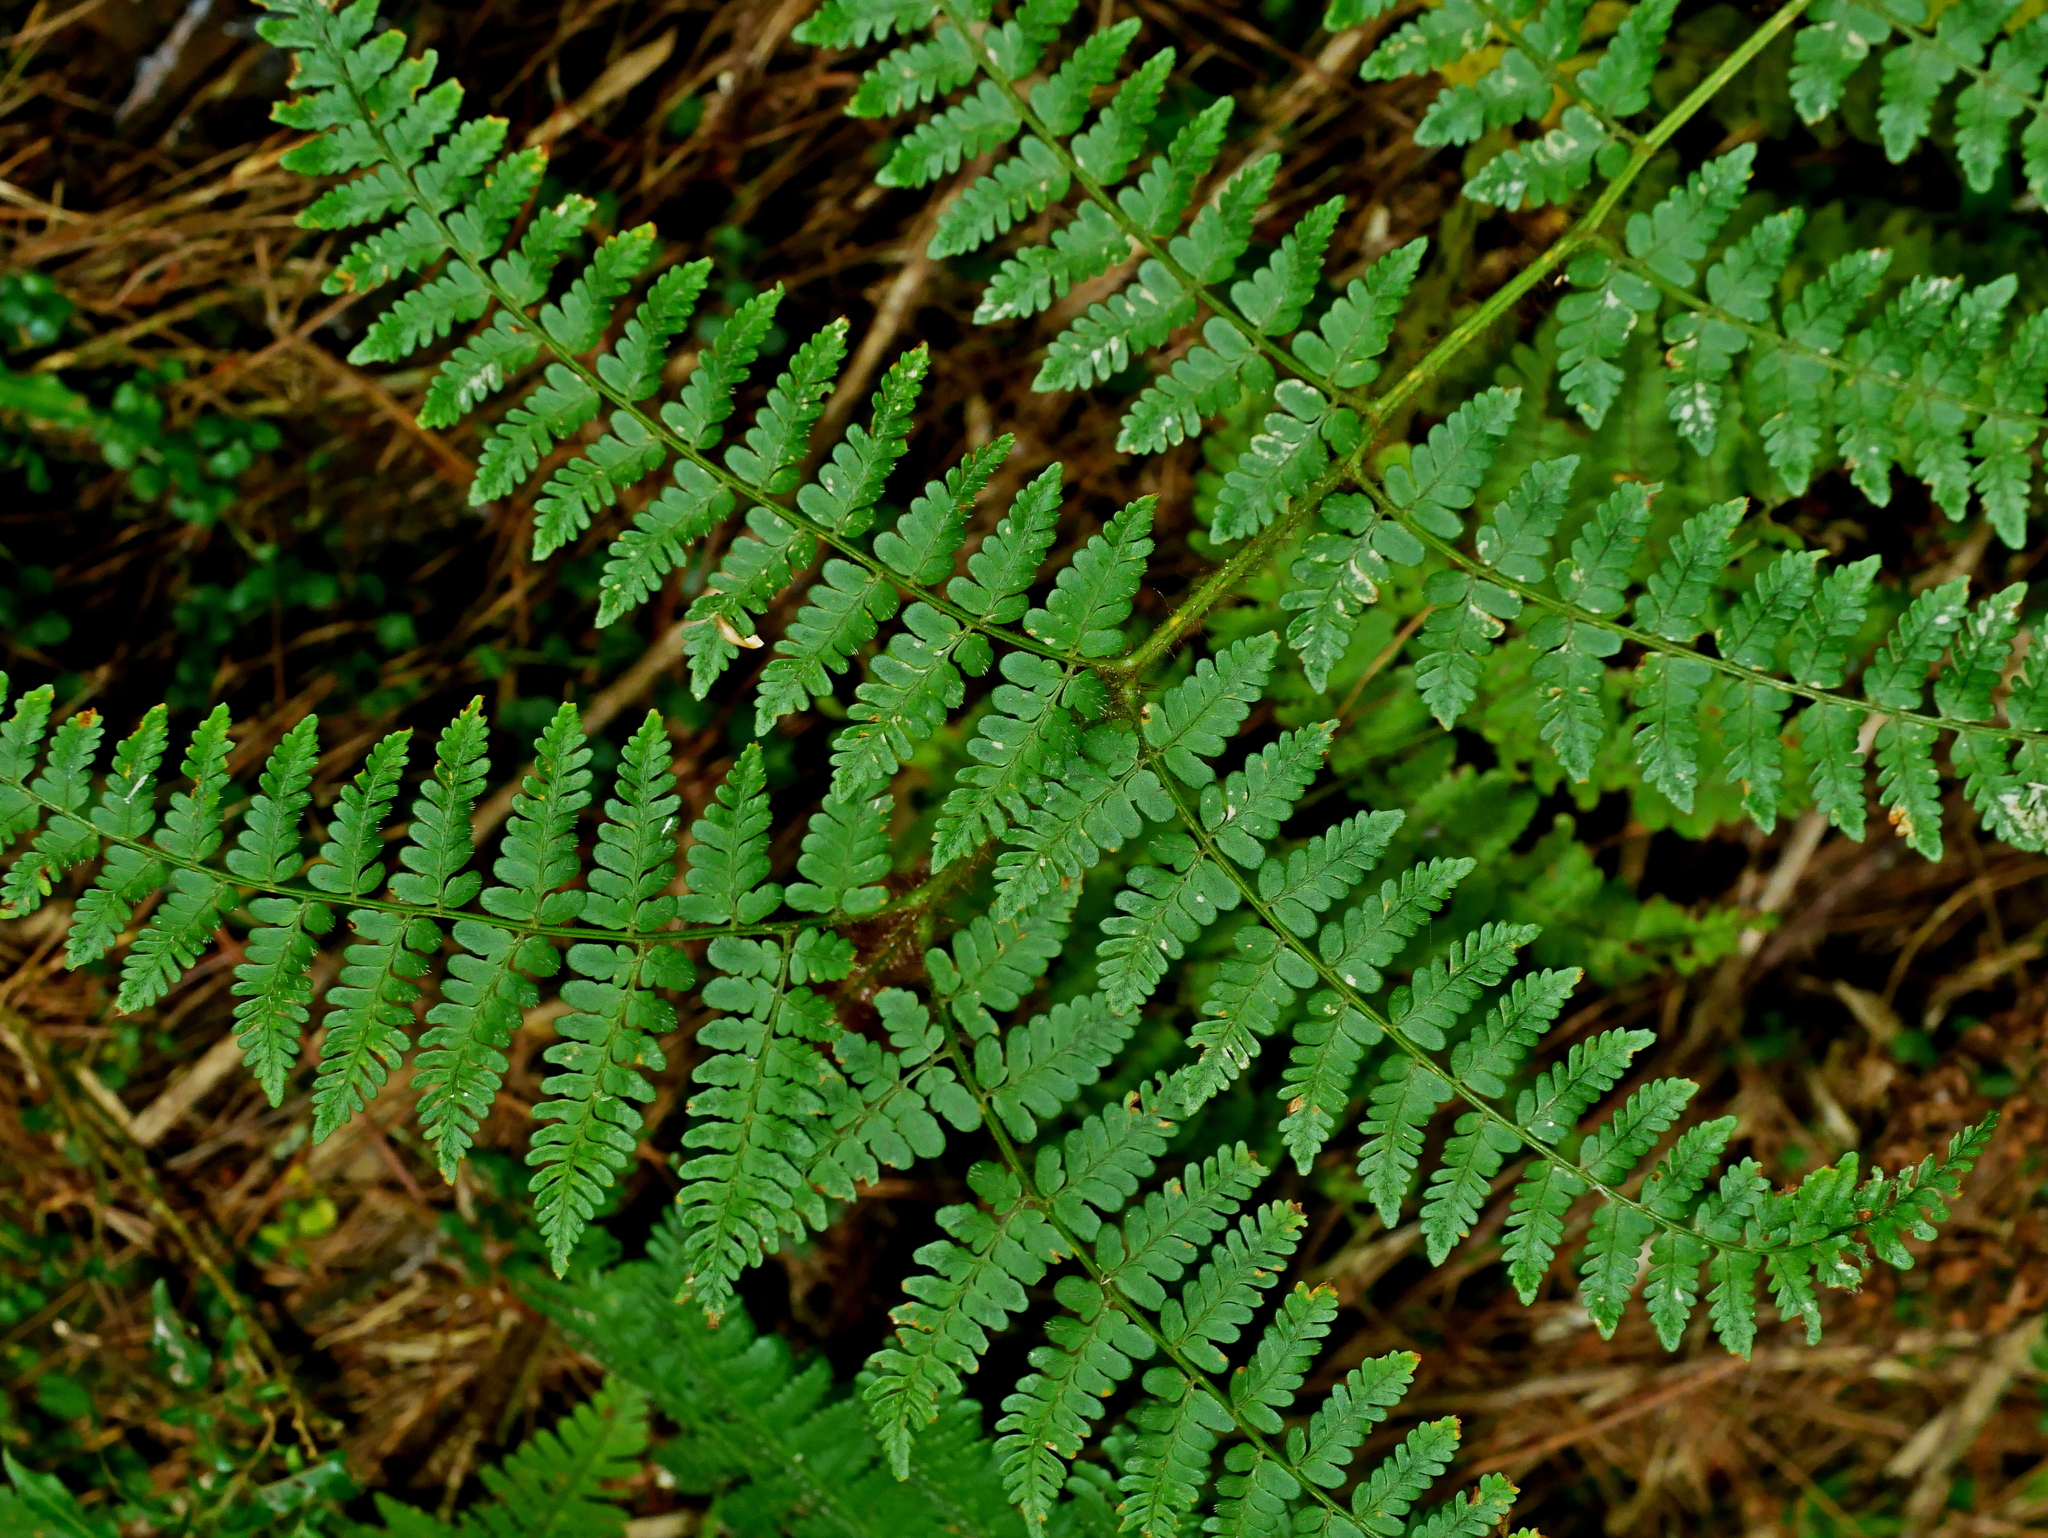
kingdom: Plantae
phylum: Tracheophyta
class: Polypodiopsida
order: Polypodiales
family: Dryopteridaceae
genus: Dryopteris
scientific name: Dryopteris squamiseta
